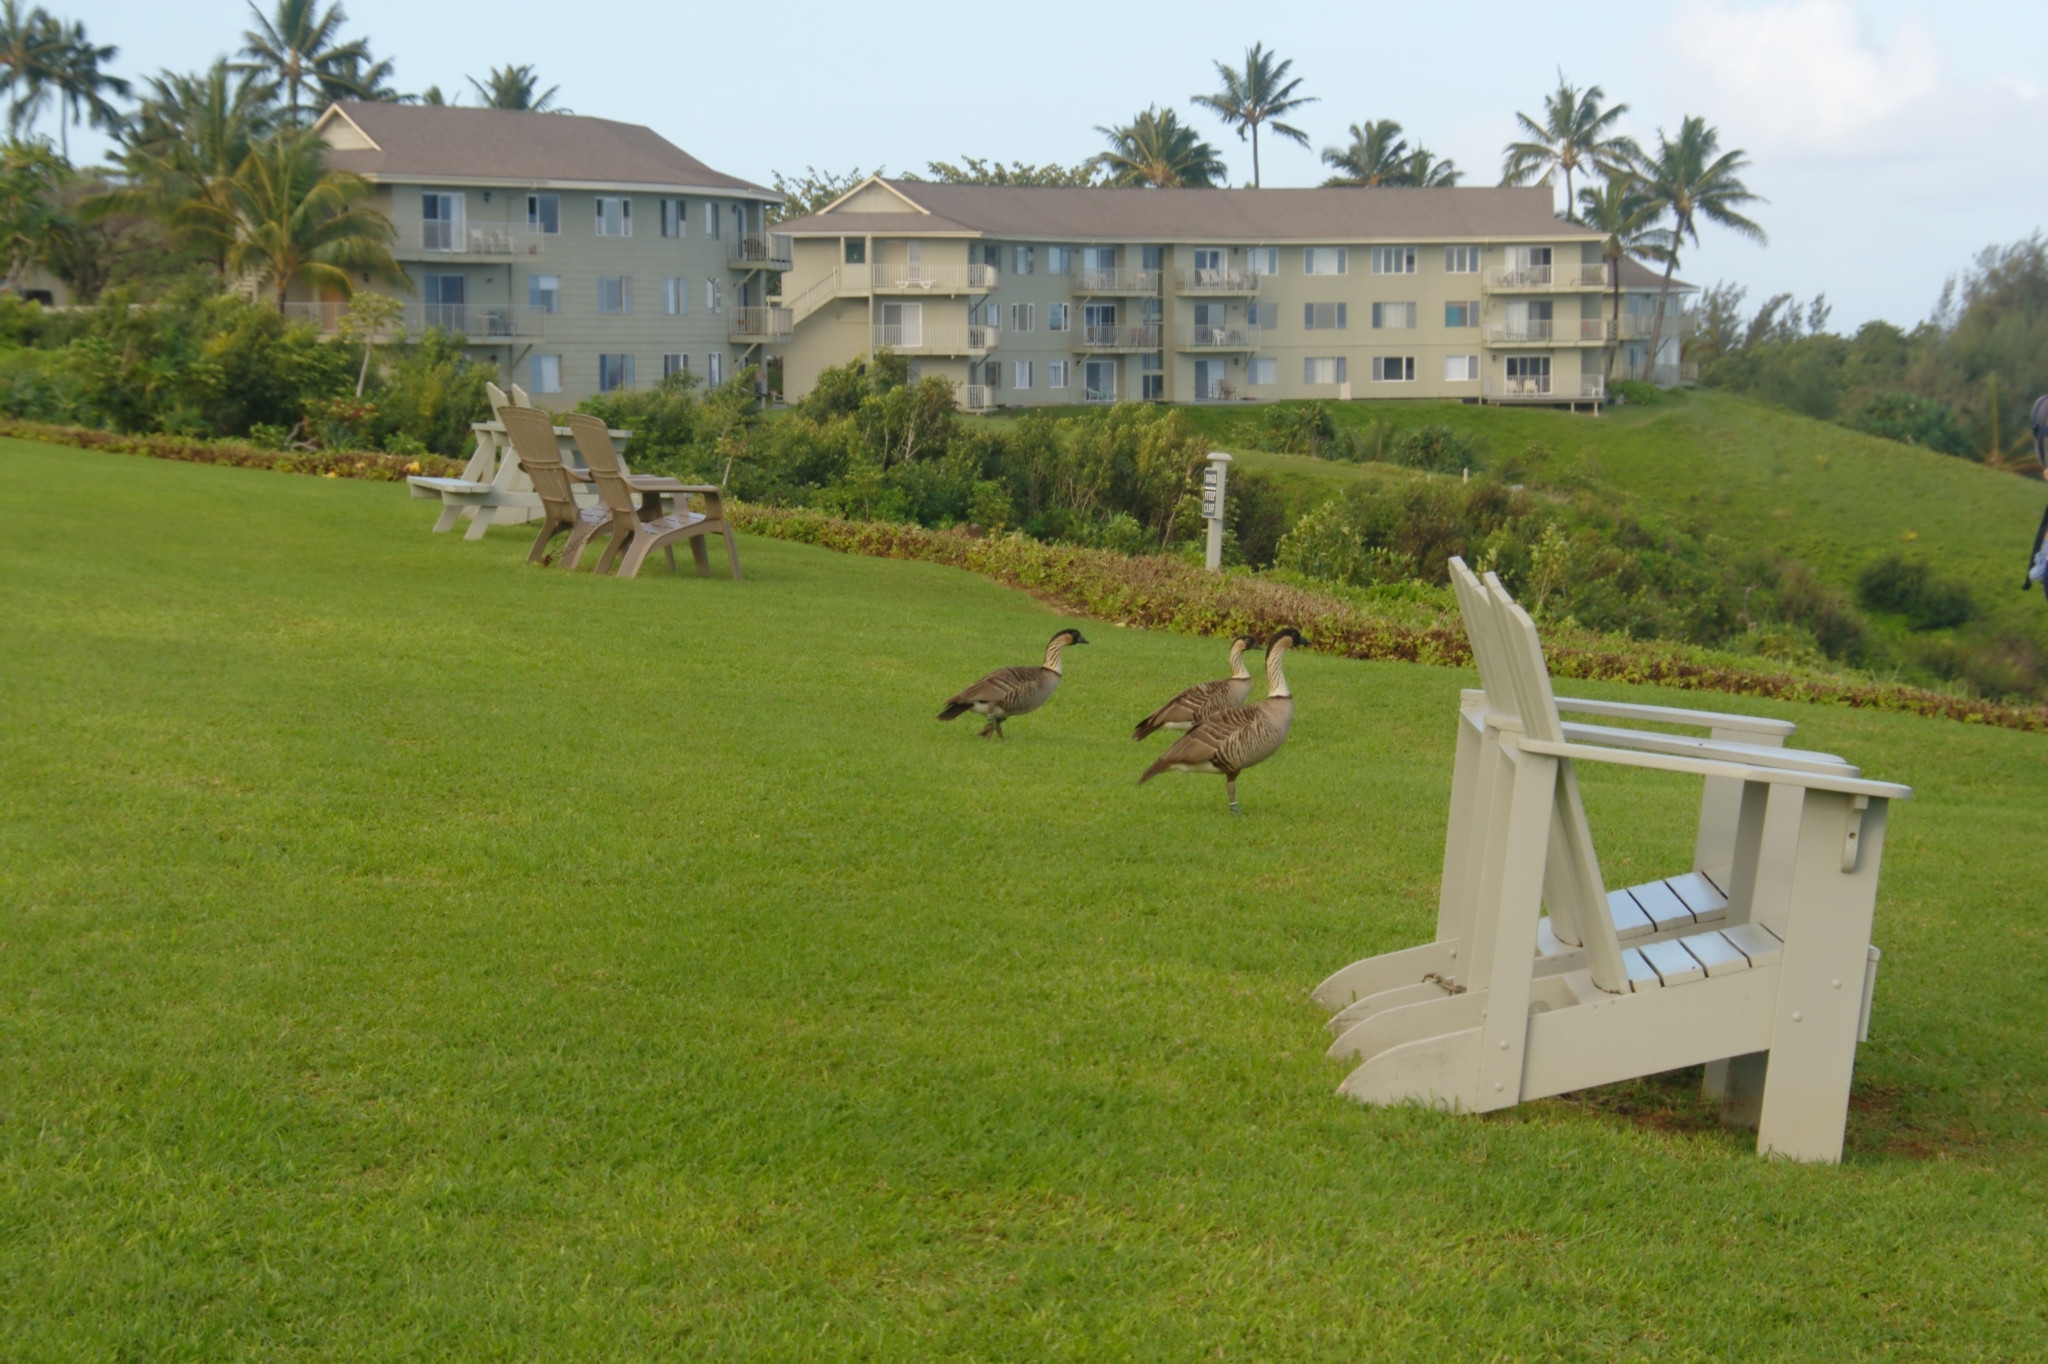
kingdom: Animalia
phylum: Chordata
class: Aves
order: Anseriformes
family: Anatidae
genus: Branta
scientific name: Branta sandvicensis
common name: Nene
